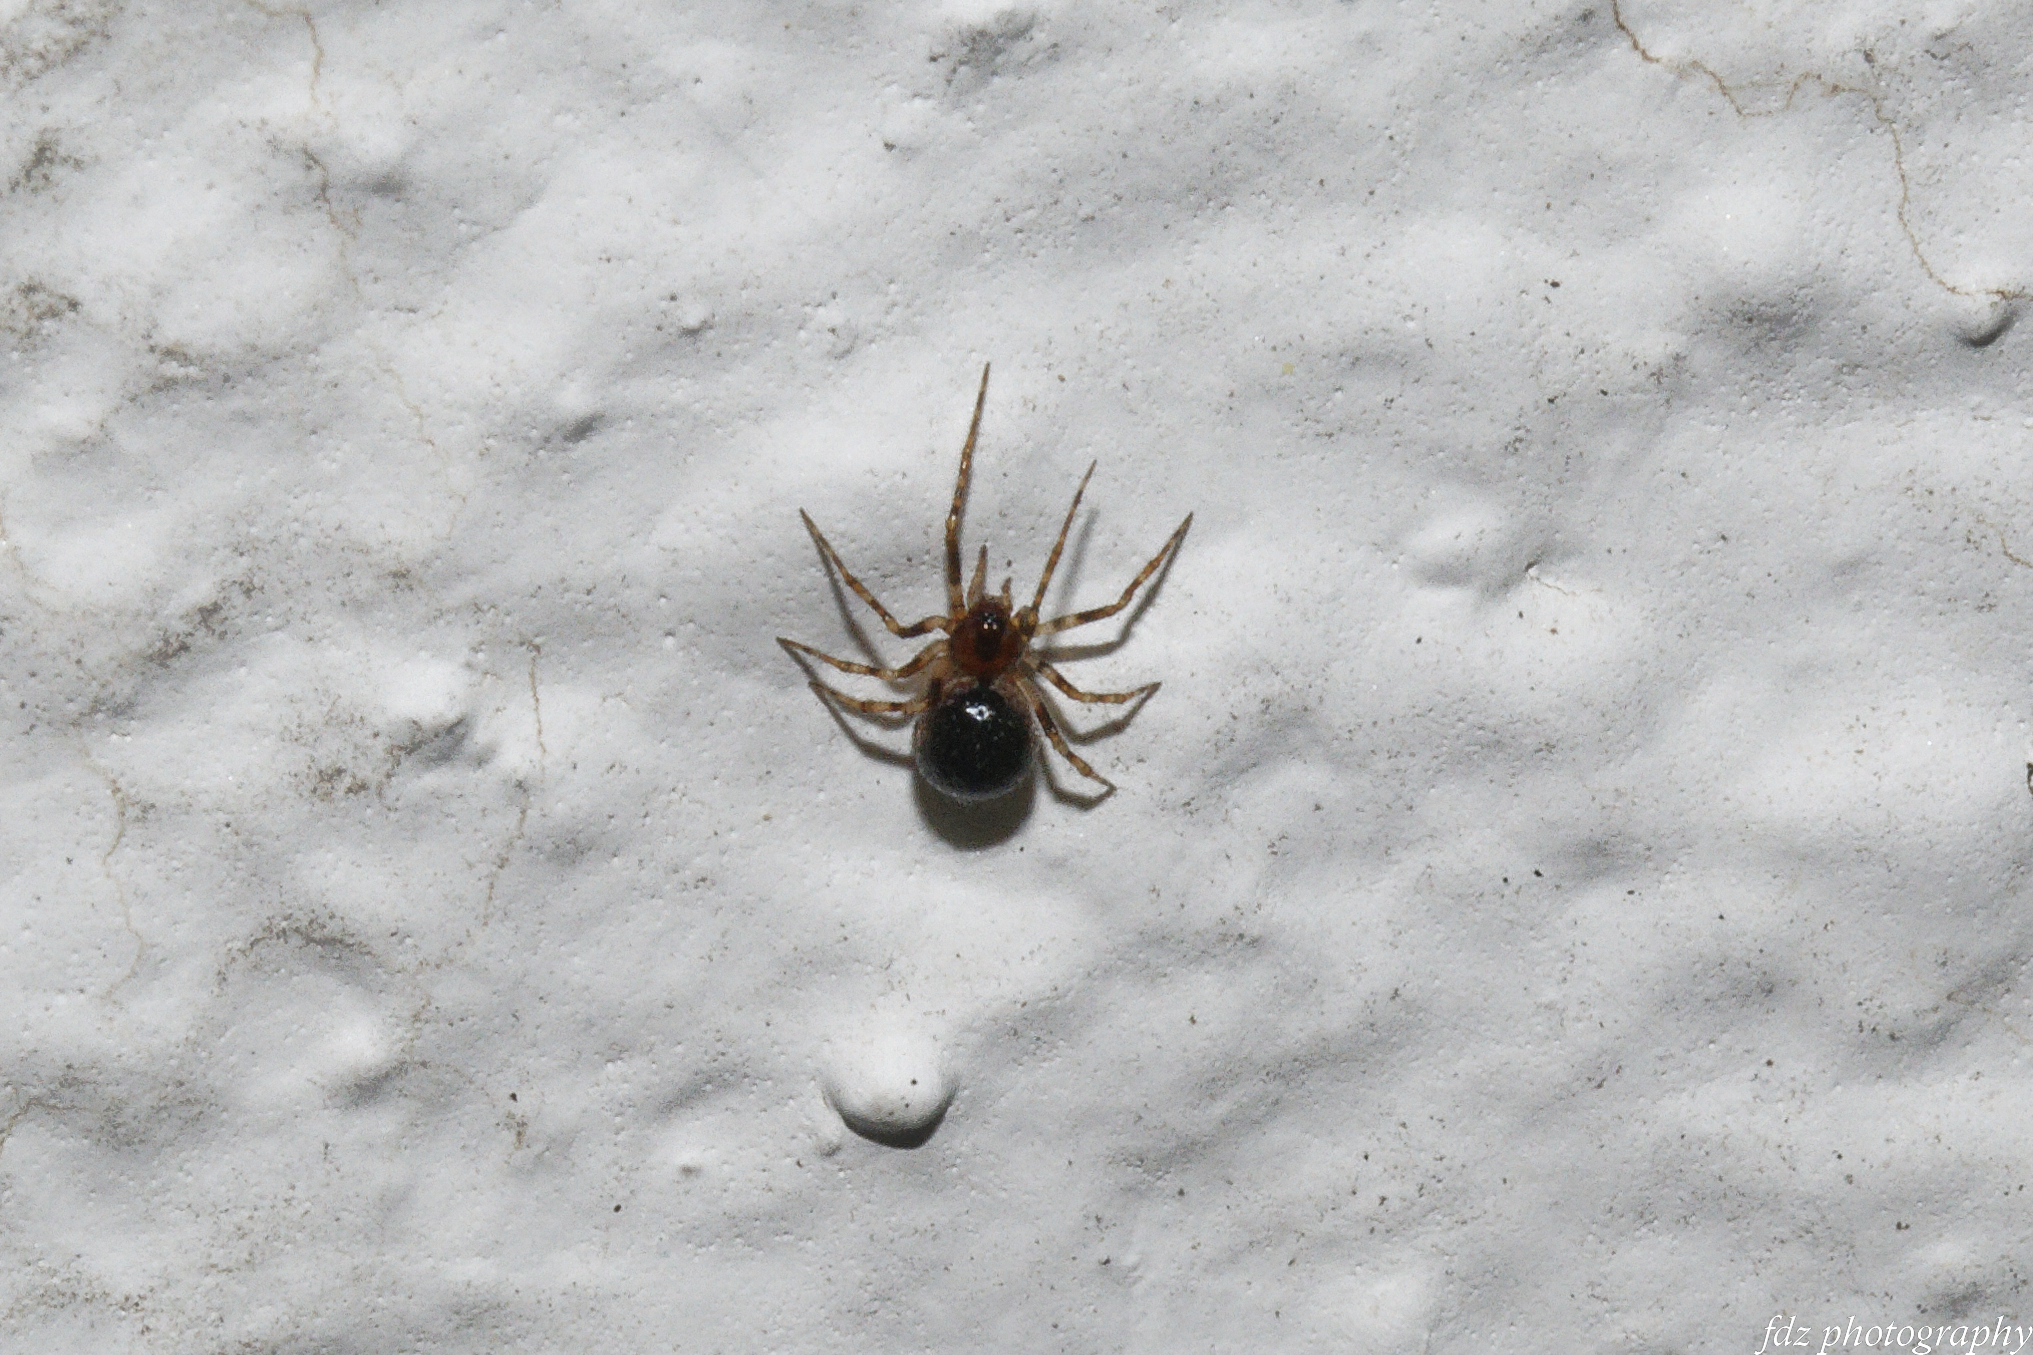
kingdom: Animalia
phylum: Arthropoda
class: Arachnida
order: Araneae
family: Theridiidae
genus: Sardinidion
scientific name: Sardinidion blackwalli
